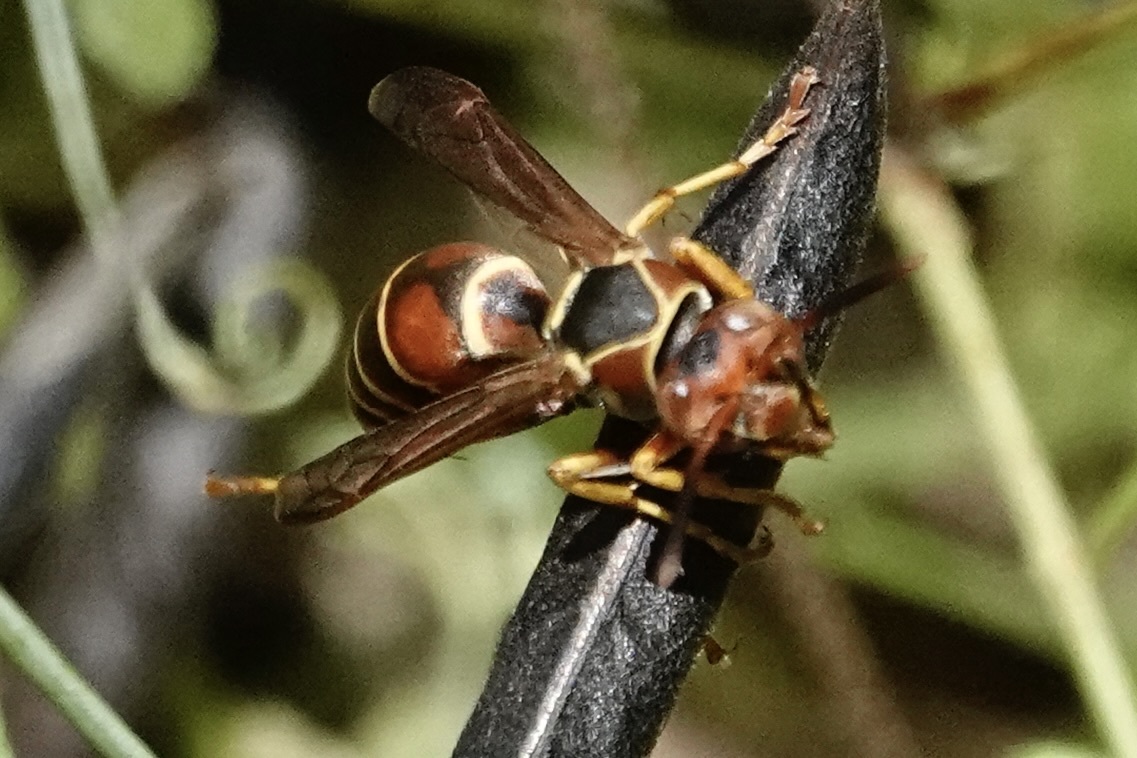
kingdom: Animalia
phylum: Arthropoda
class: Insecta
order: Hymenoptera
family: Eumenidae
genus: Polistes
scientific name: Polistes dorsalis
